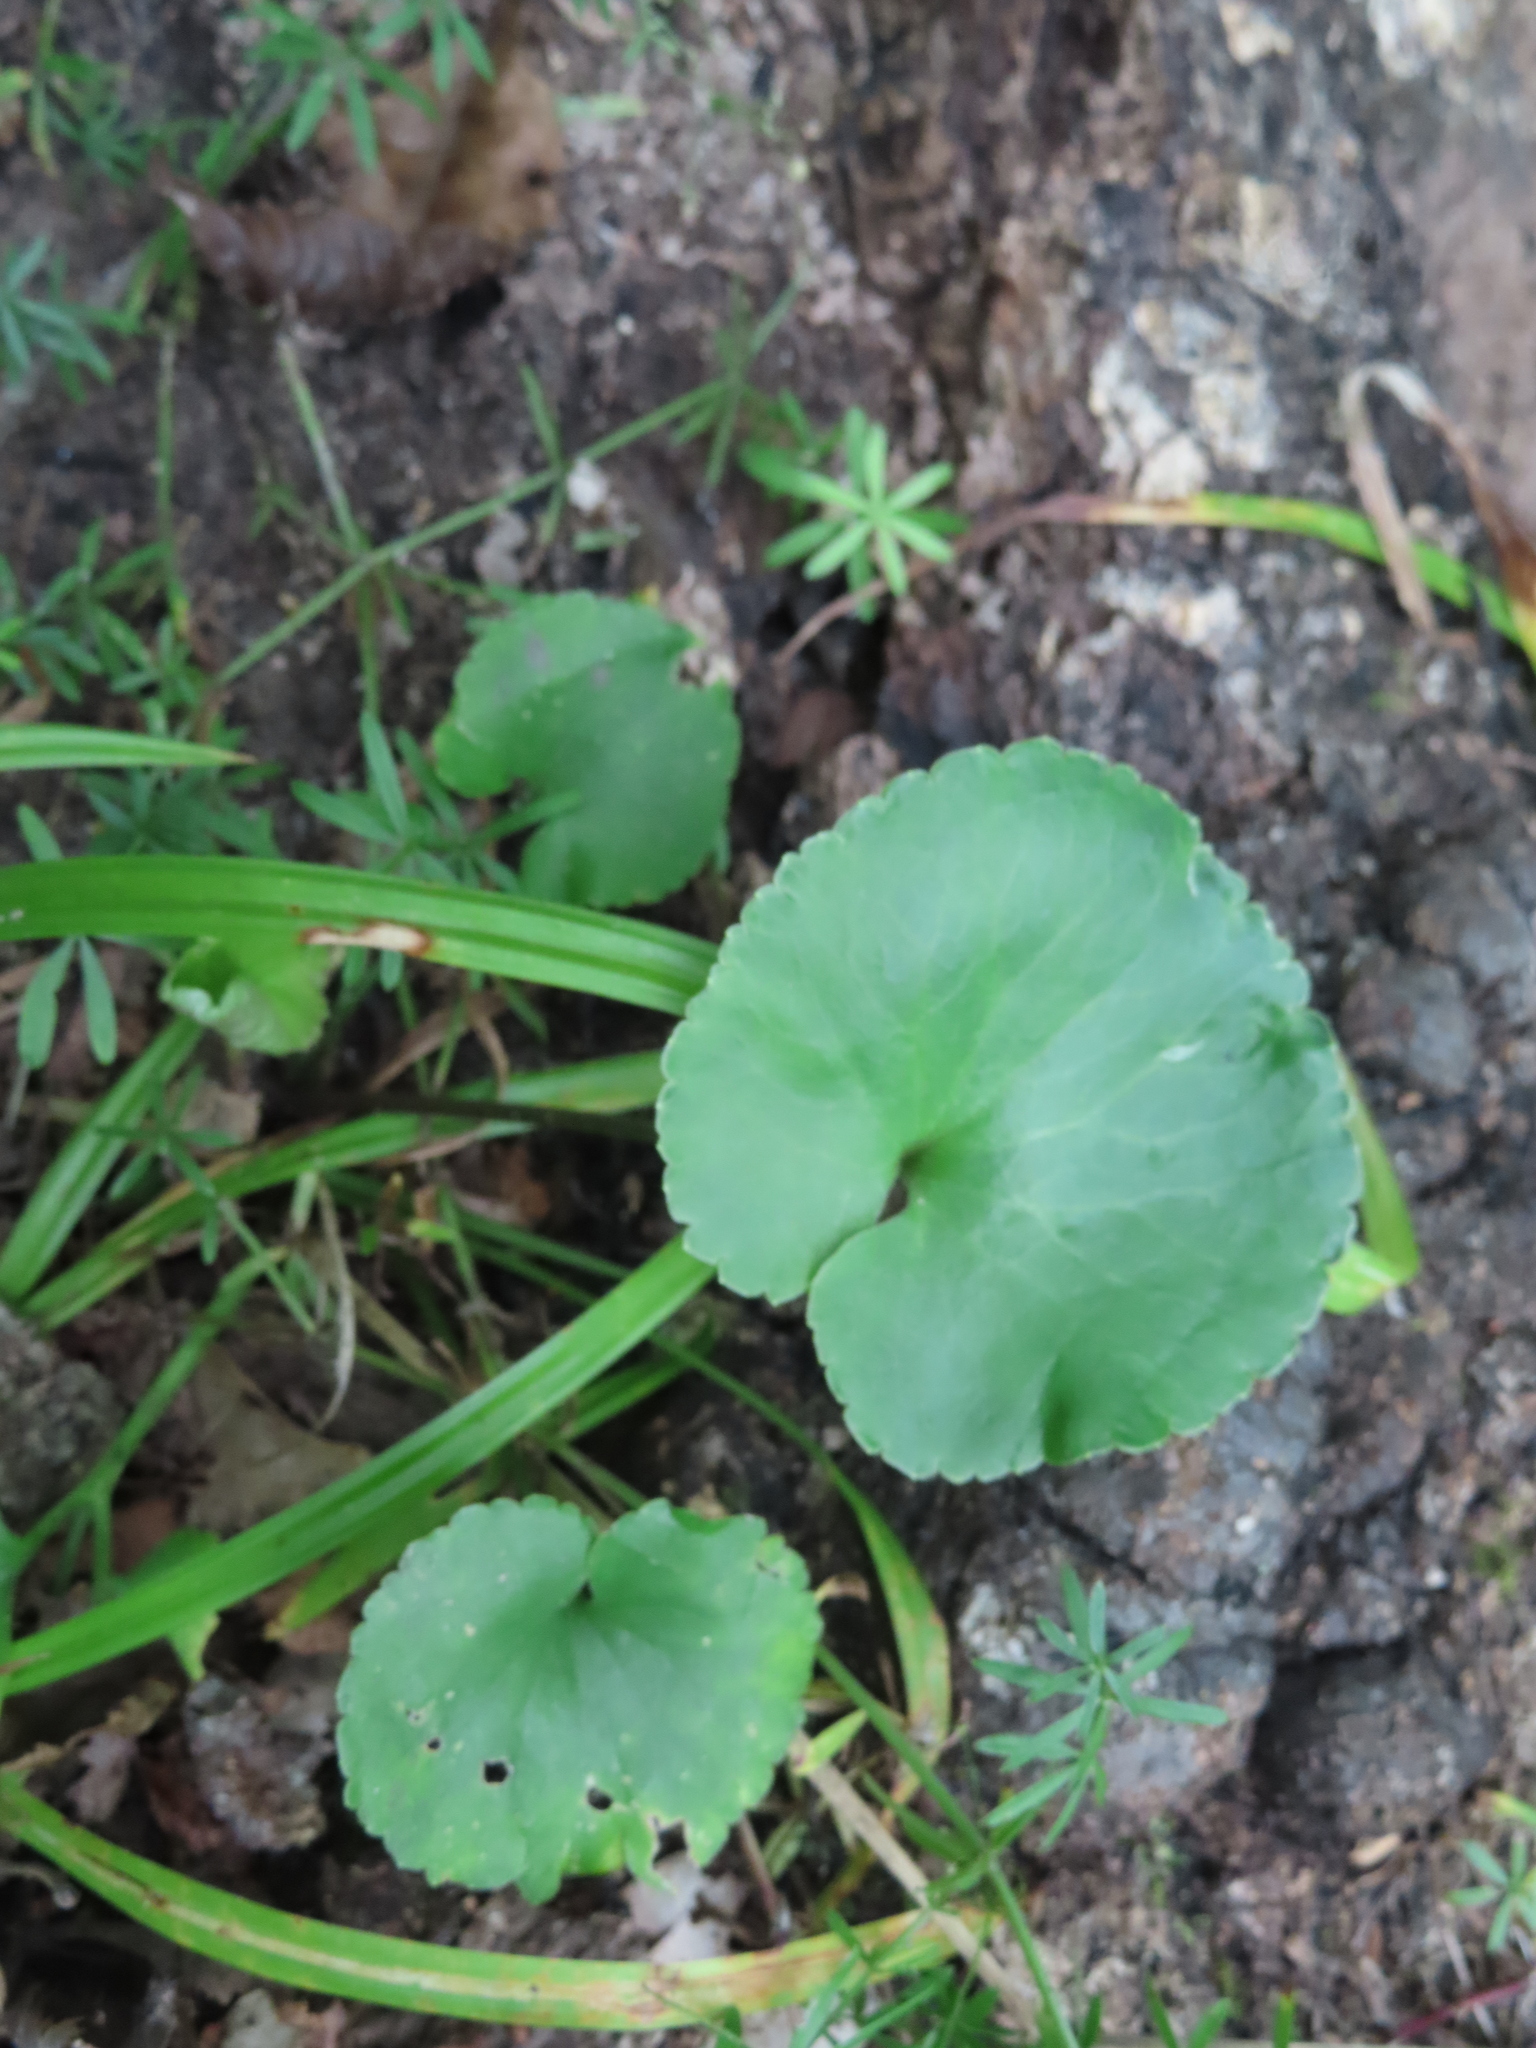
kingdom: Plantae
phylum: Tracheophyta
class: Magnoliopsida
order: Ranunculales
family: Ranunculaceae
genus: Ranunculus
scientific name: Ranunculus abortivus
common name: Early wood buttercup
